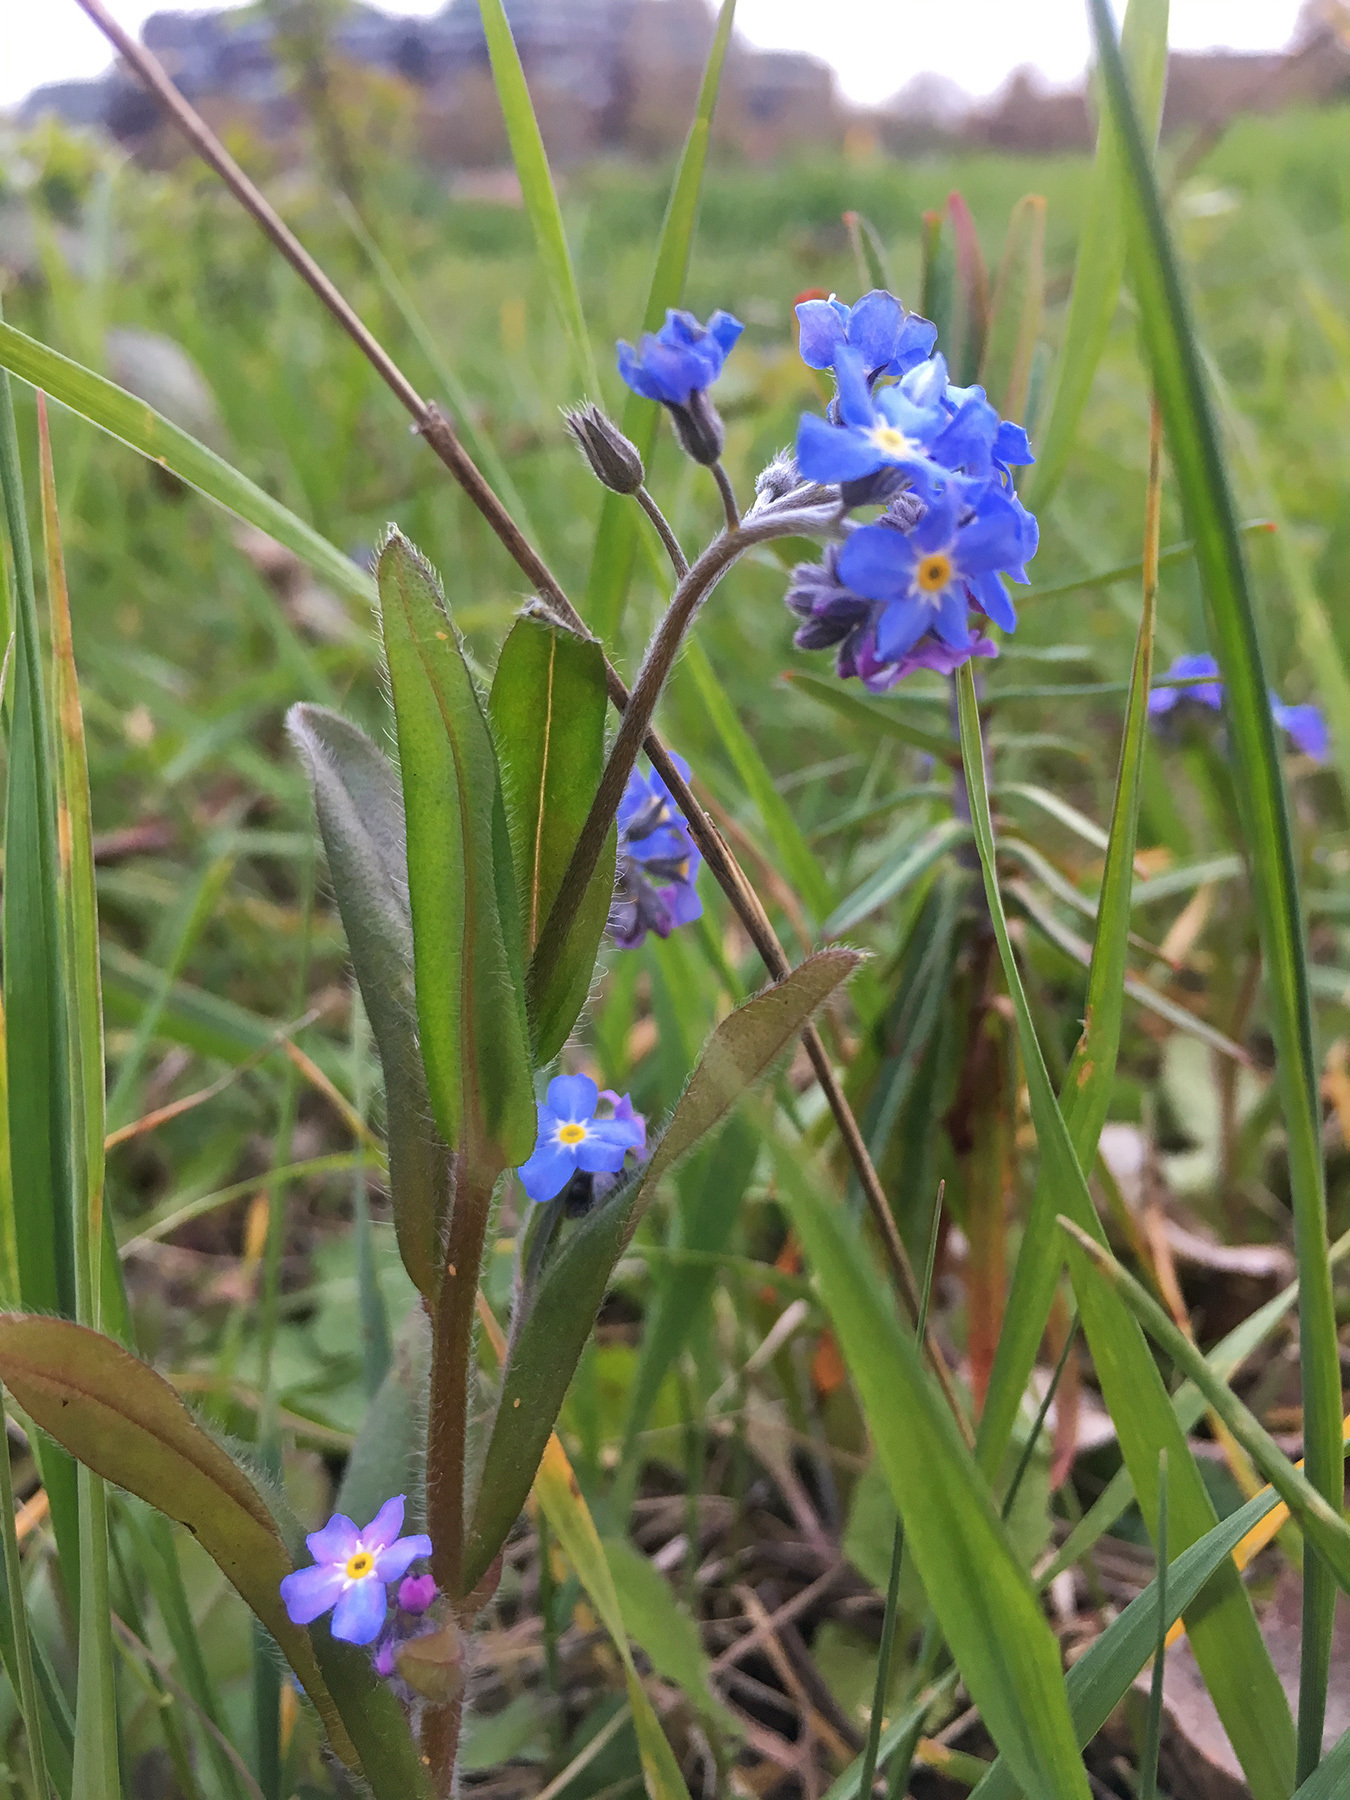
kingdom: Plantae
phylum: Tracheophyta
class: Magnoliopsida
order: Boraginales
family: Boraginaceae
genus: Myosotis
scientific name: Myosotis sylvatica
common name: Wood forget-me-not
